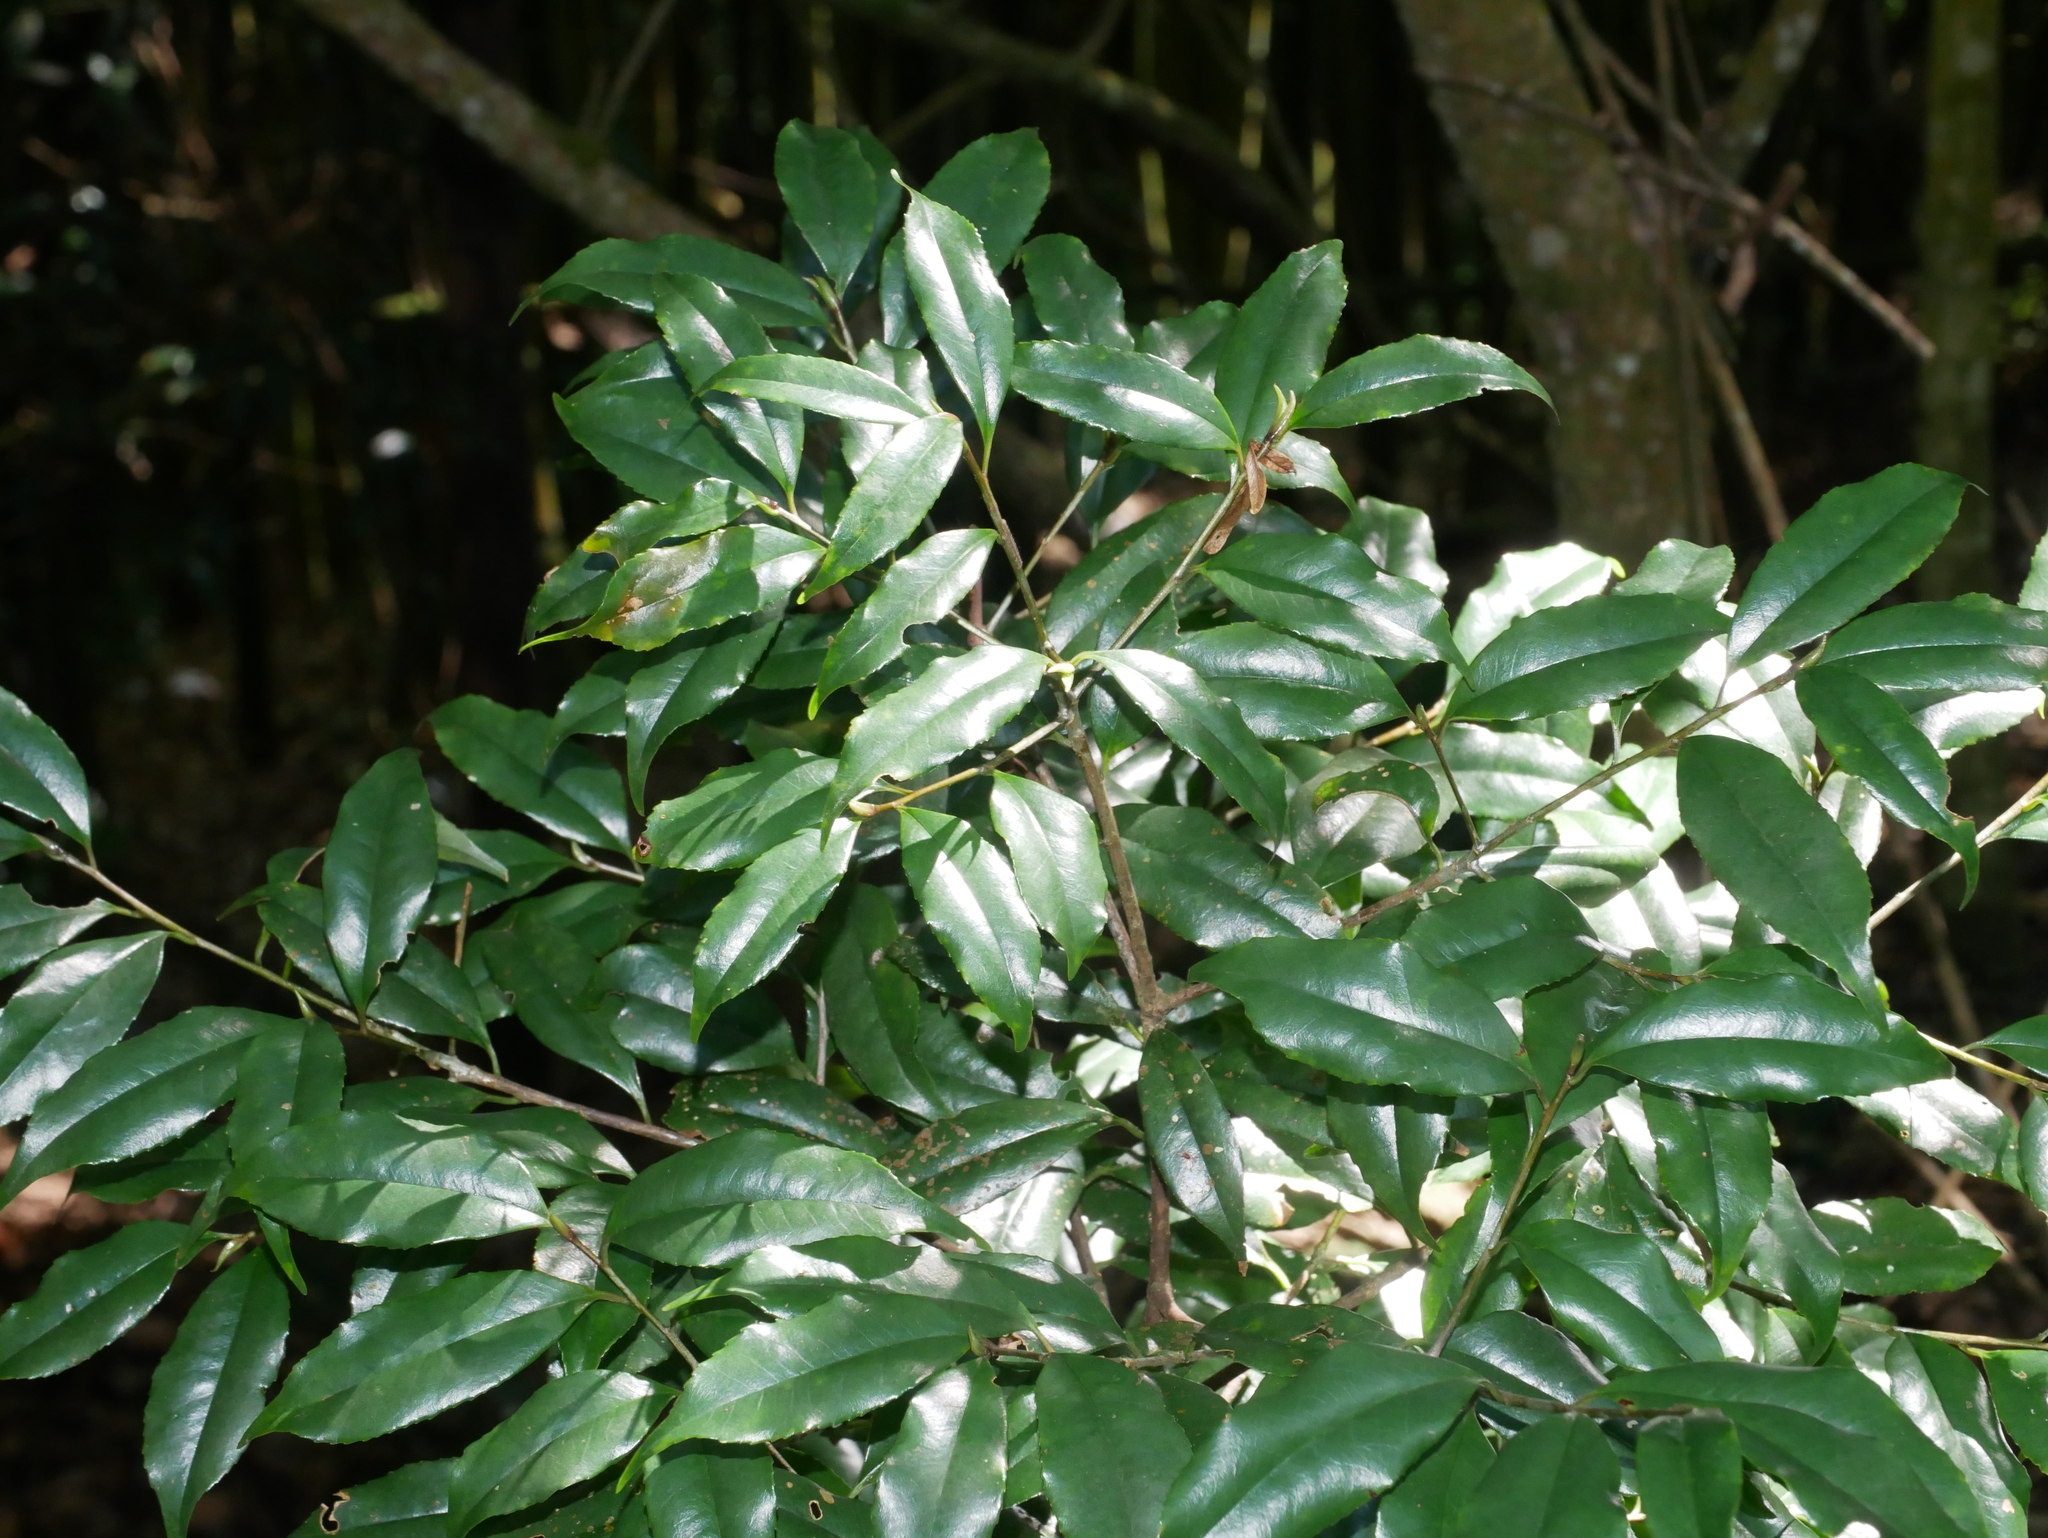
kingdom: Plantae
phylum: Tracheophyta
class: Magnoliopsida
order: Ericales
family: Symplocaceae
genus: Symplocos
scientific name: Symplocos heishanensis
